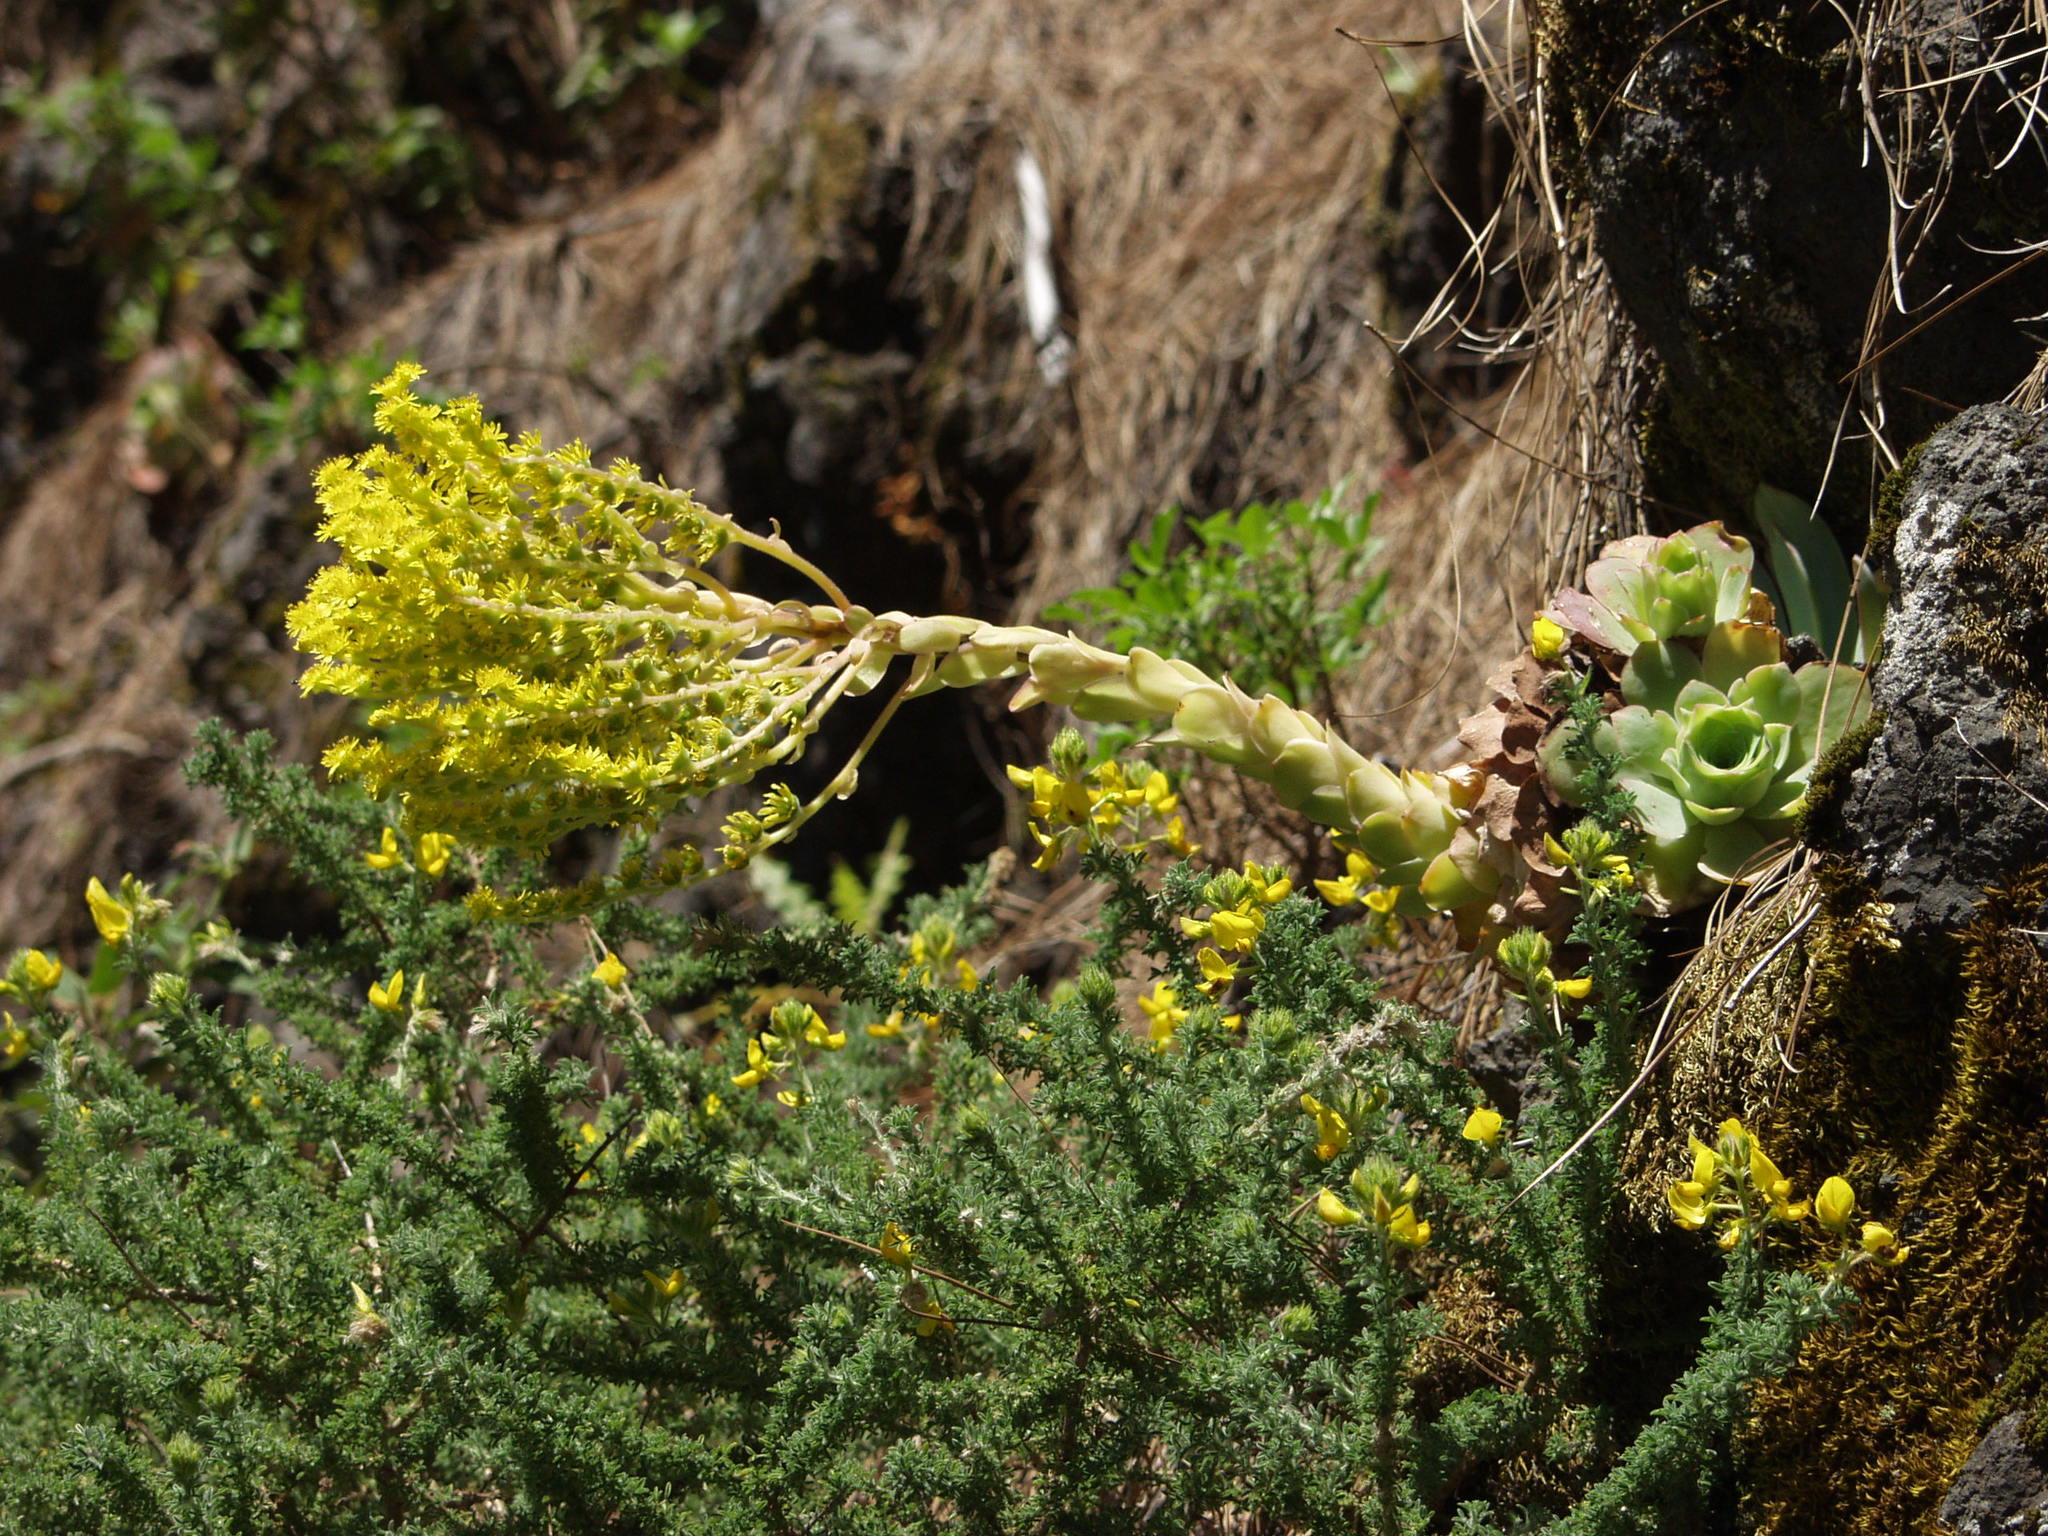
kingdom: Plantae
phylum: Tracheophyta
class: Magnoliopsida
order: Saxifragales
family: Crassulaceae
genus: Aeonium
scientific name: Aeonium diplocyclum
